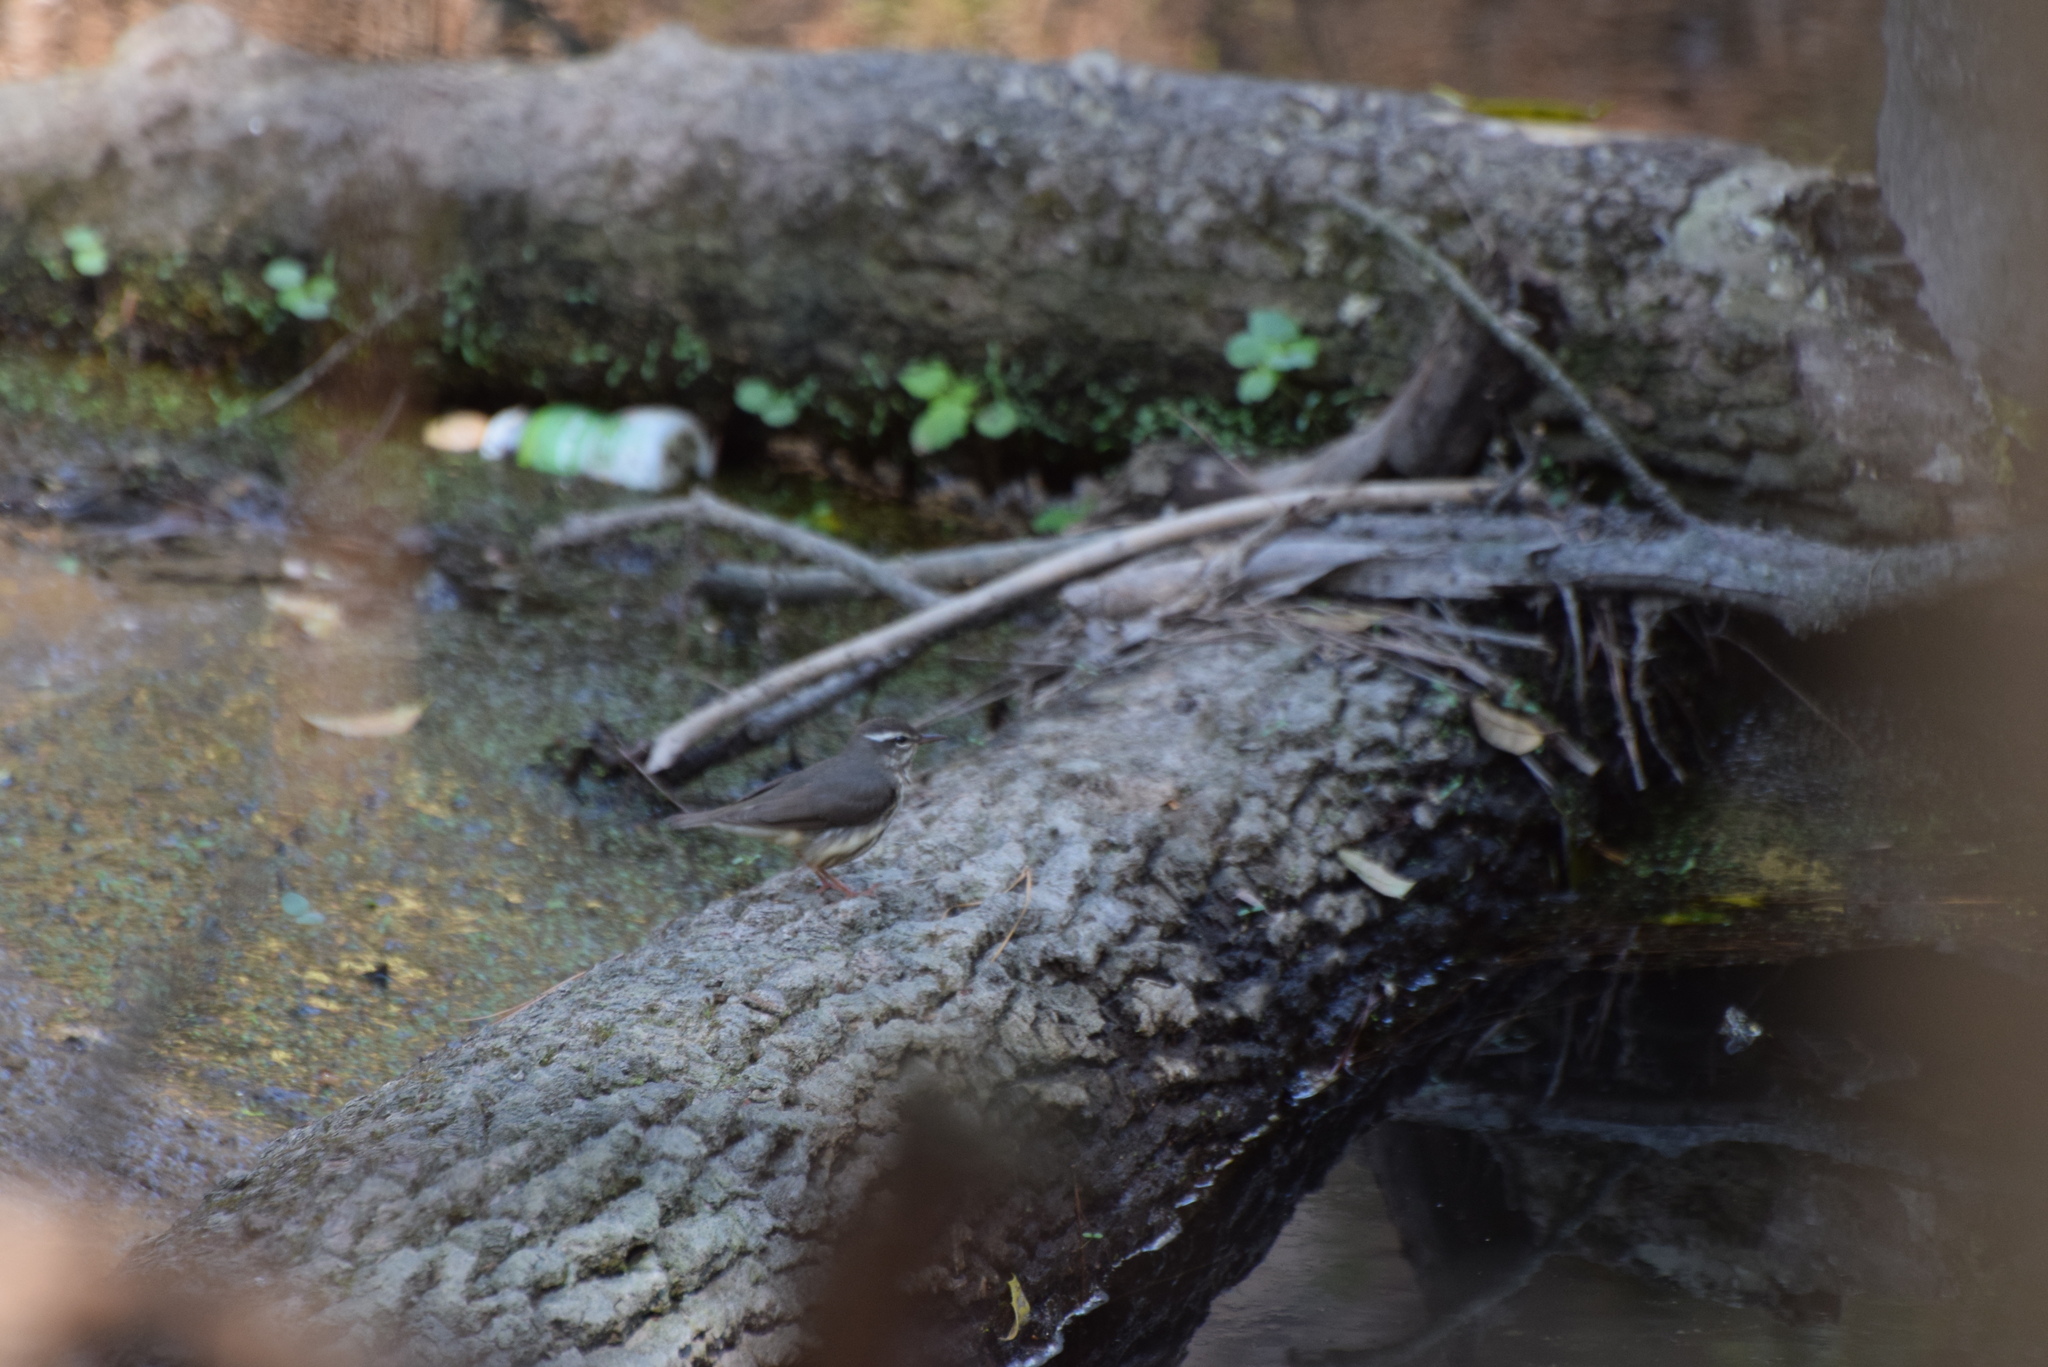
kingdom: Animalia
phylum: Chordata
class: Aves
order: Passeriformes
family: Parulidae
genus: Parkesia
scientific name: Parkesia motacilla
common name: Louisiana waterthrush
